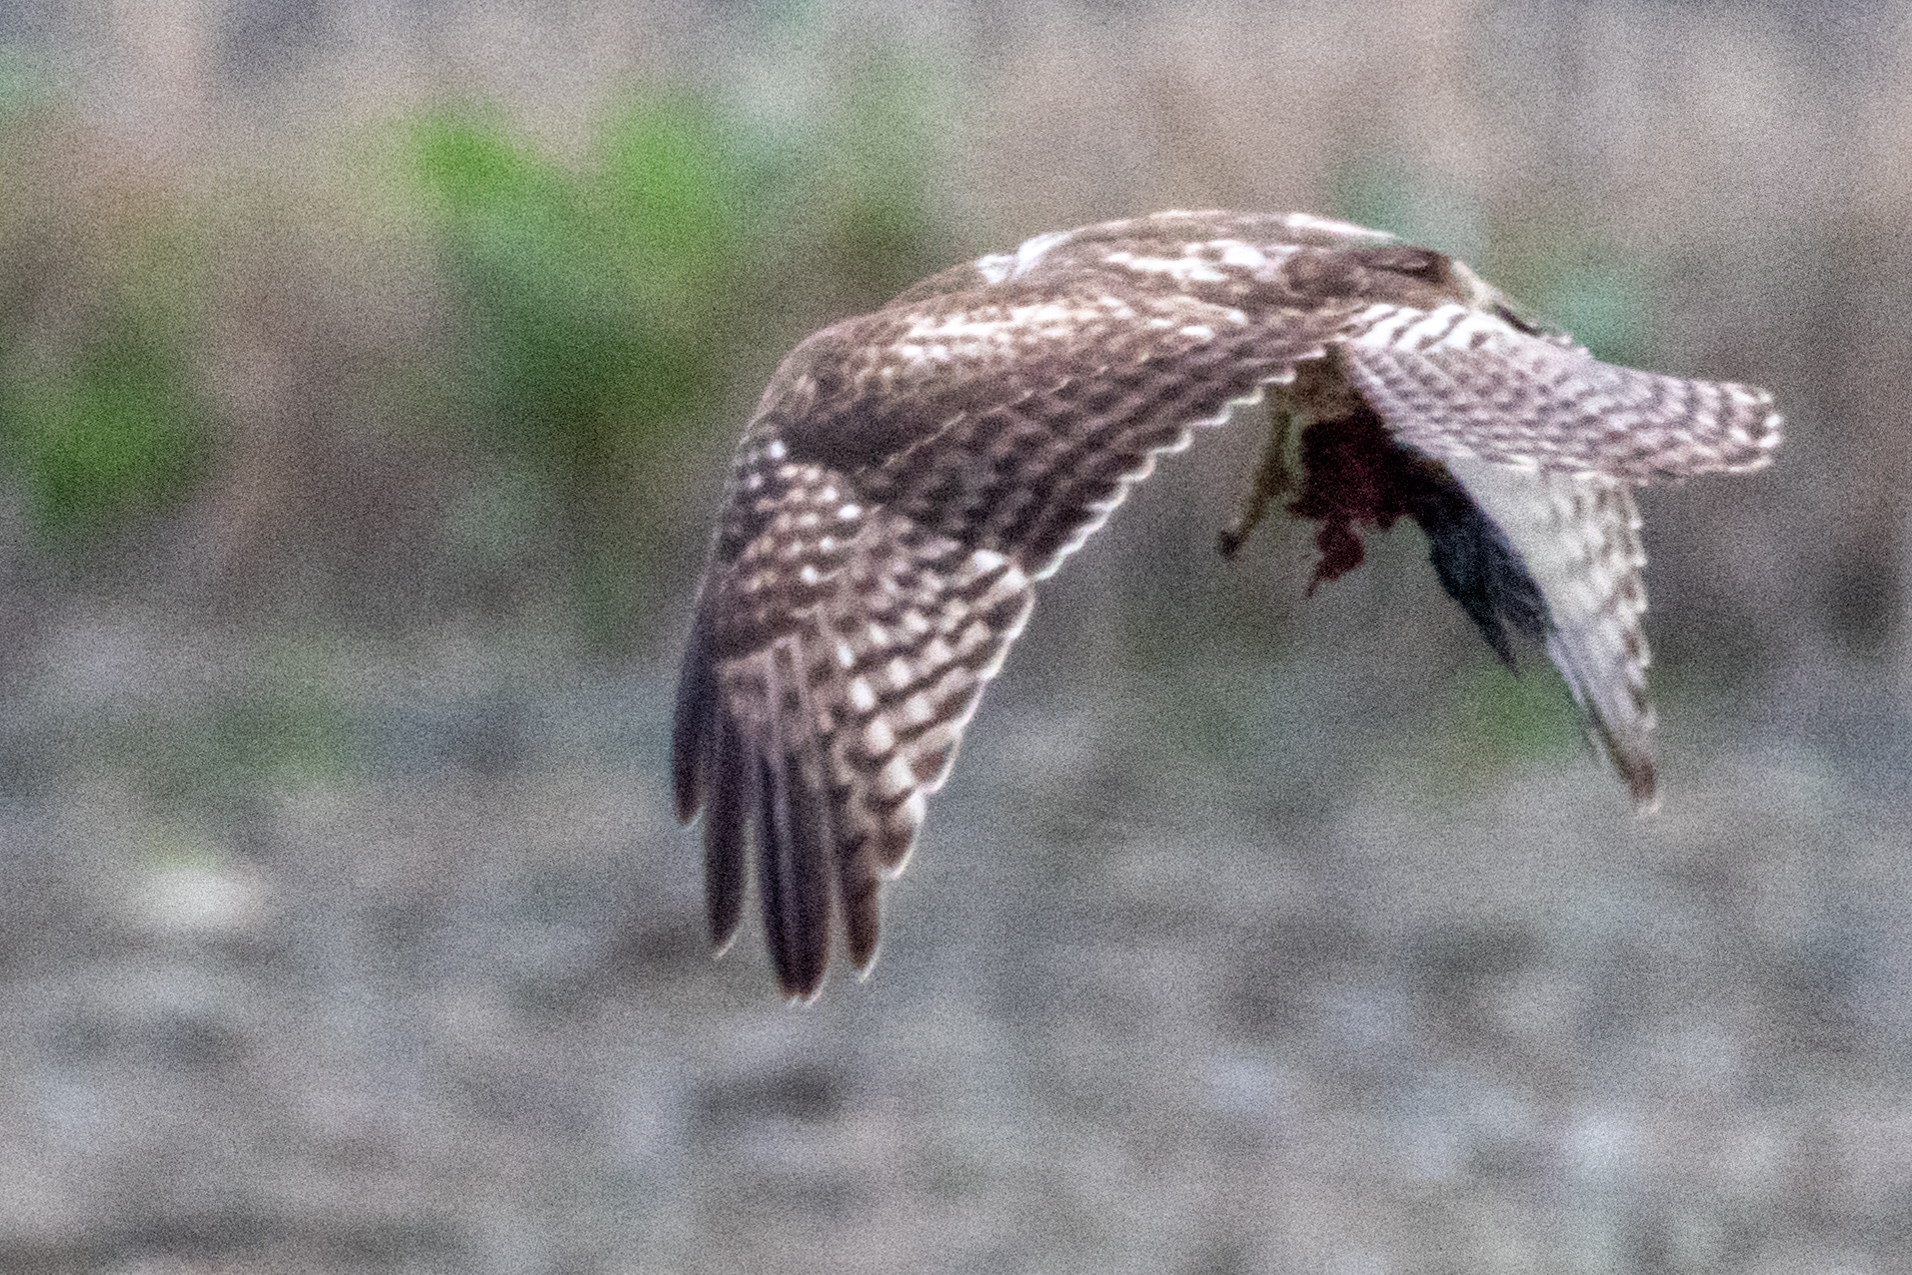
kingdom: Animalia
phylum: Chordata
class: Aves
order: Accipitriformes
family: Accipitridae
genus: Buteo
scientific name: Buteo jamaicensis
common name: Red-tailed hawk
